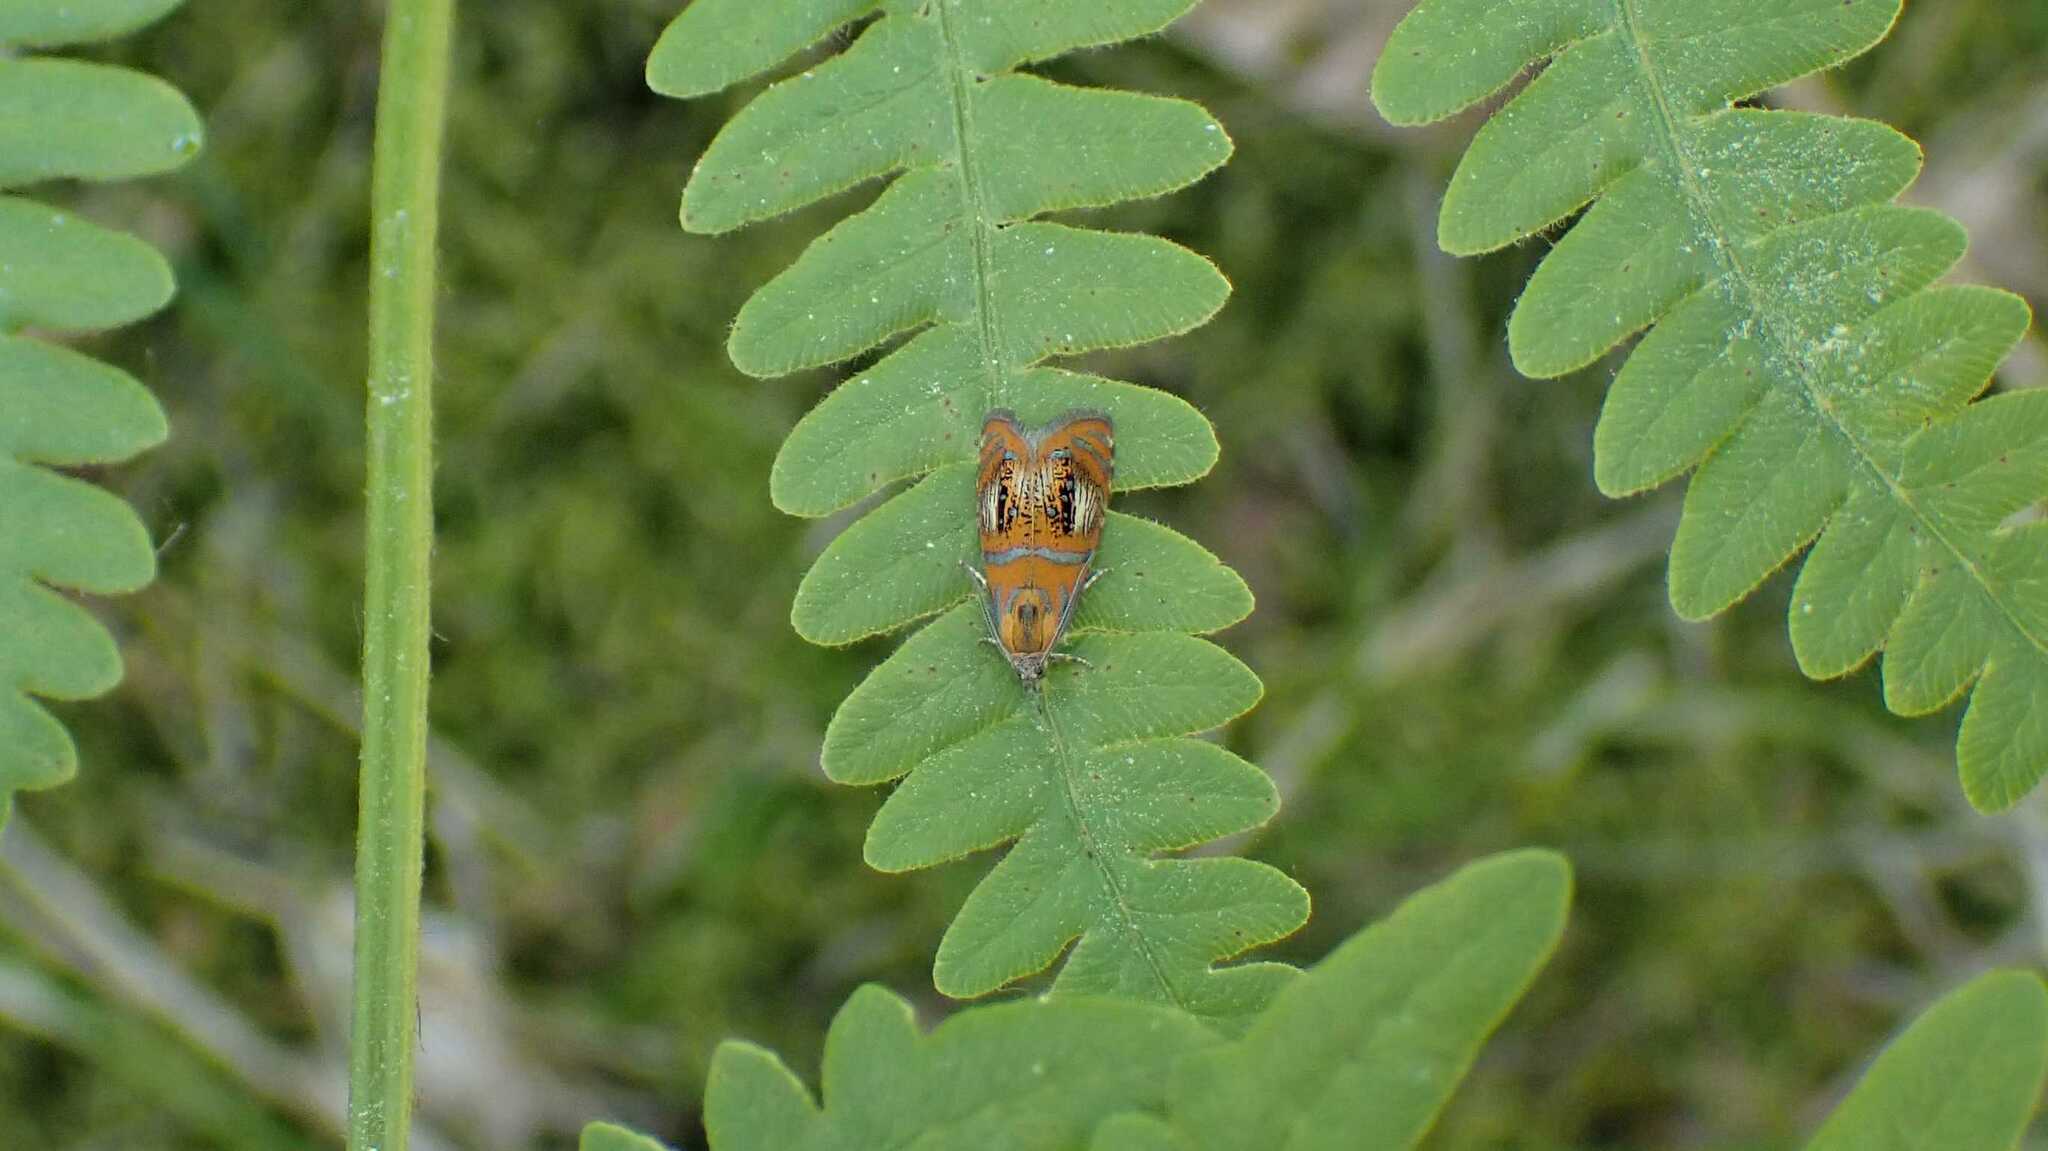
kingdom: Animalia
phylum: Arthropoda
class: Insecta
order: Lepidoptera
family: Tortricidae
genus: Olethreutes
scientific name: Olethreutes arcuella
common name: Arched marble
